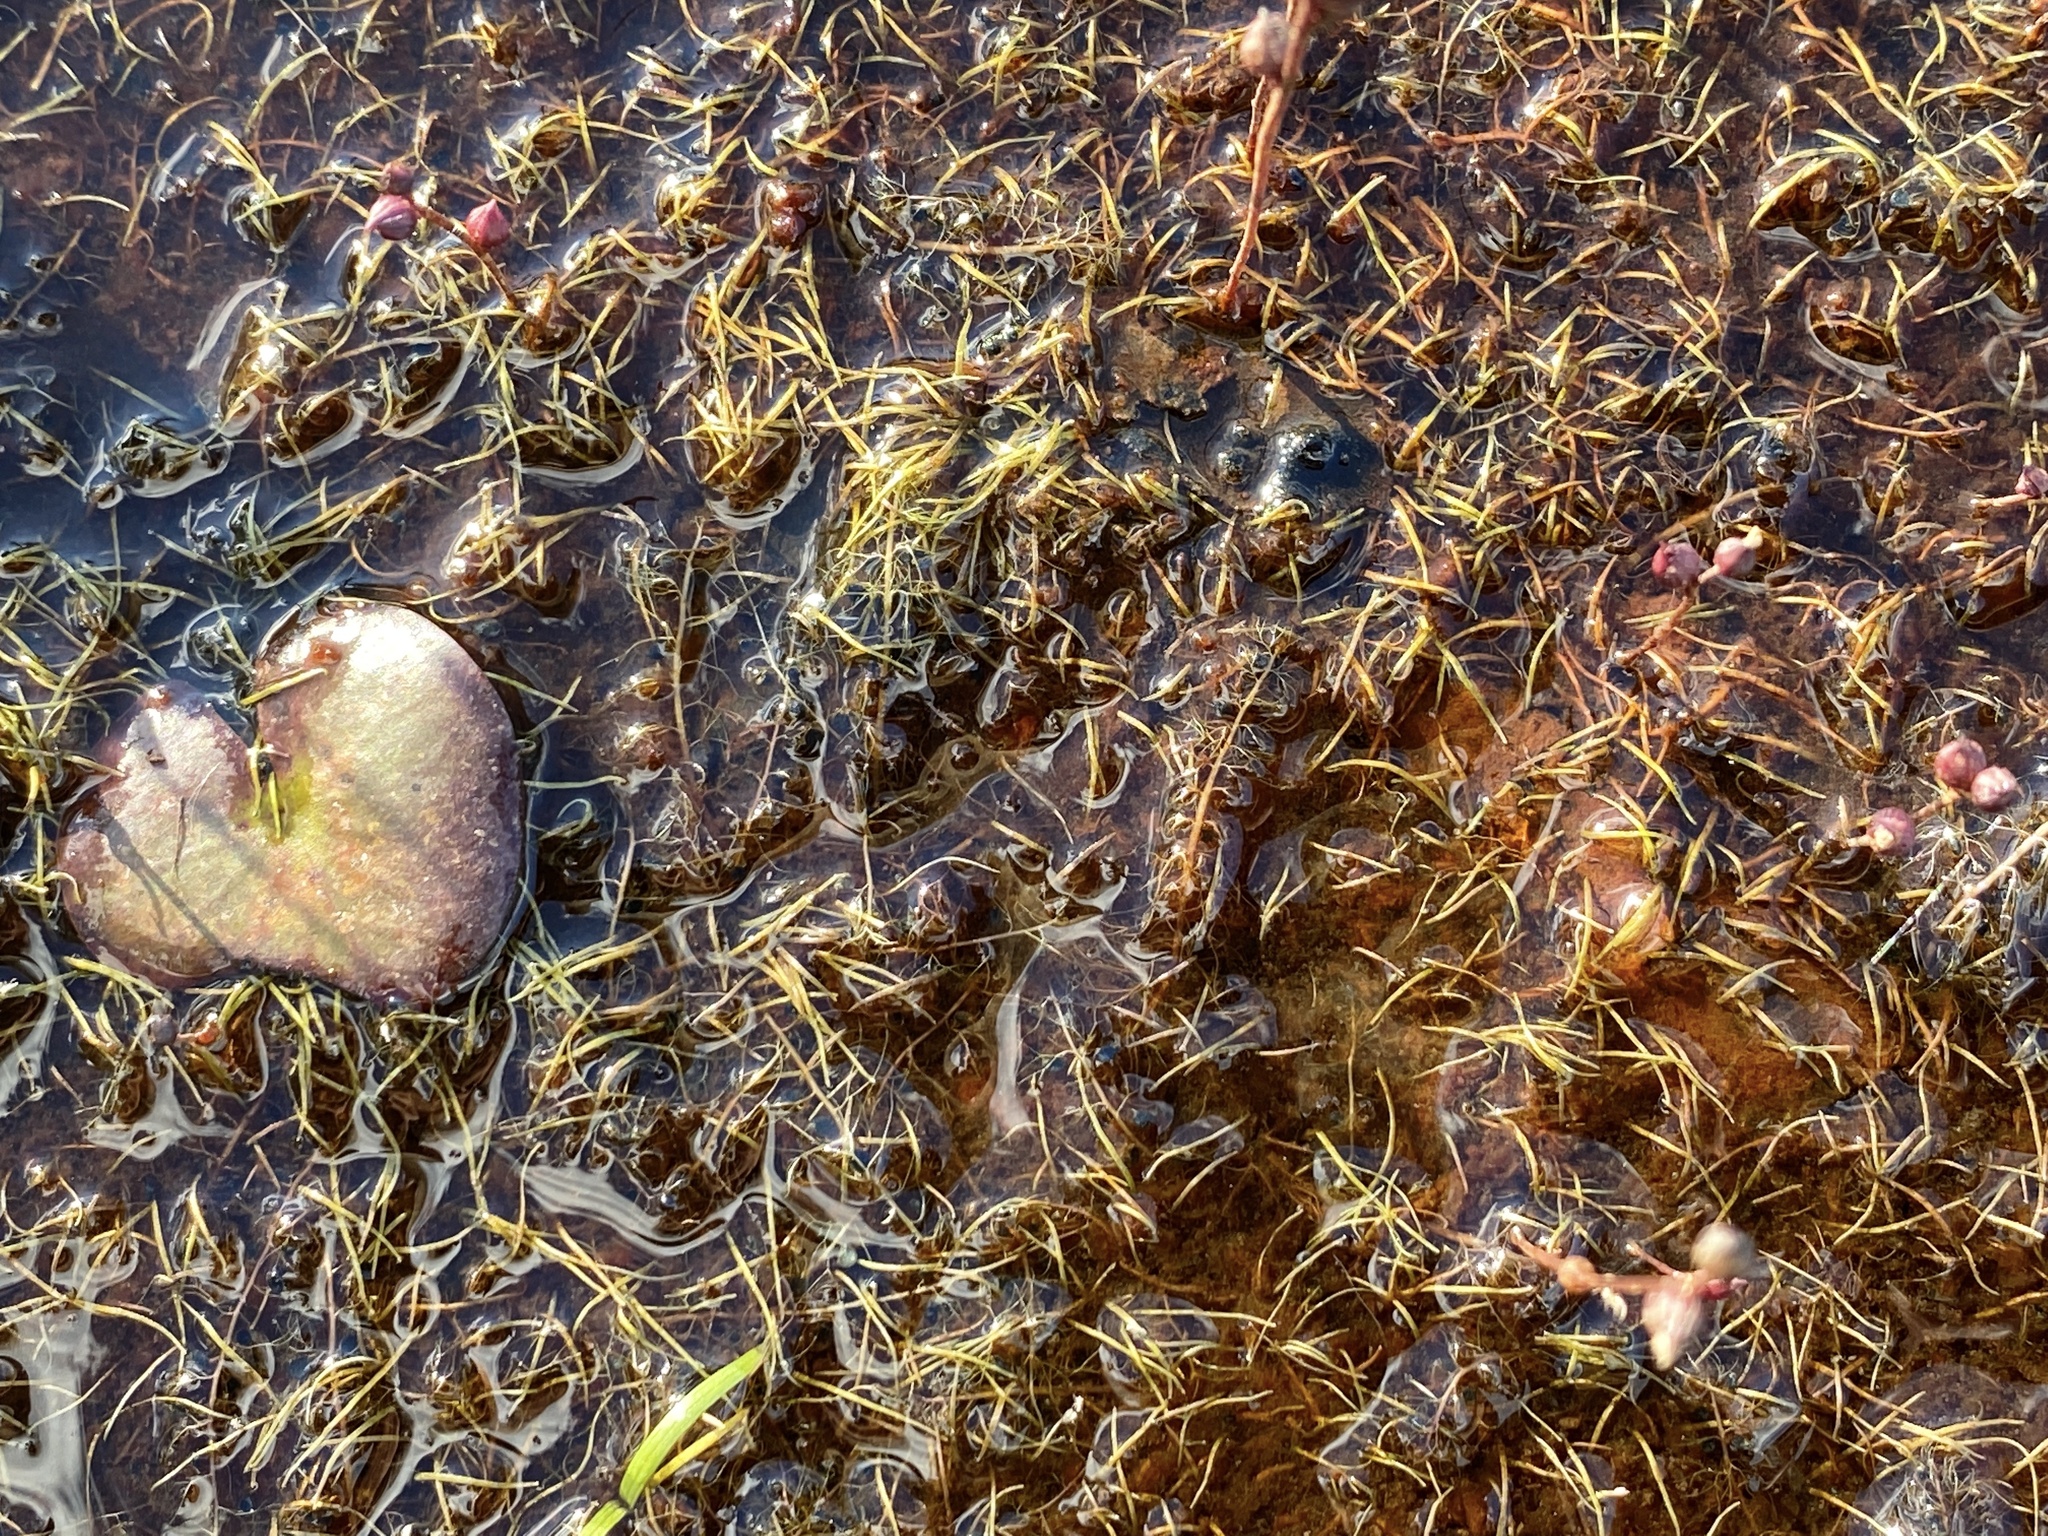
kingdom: Plantae
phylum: Tracheophyta
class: Magnoliopsida
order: Lamiales
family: Lentibulariaceae
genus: Utricularia
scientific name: Utricularia cornuta
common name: Horned bladderwort
